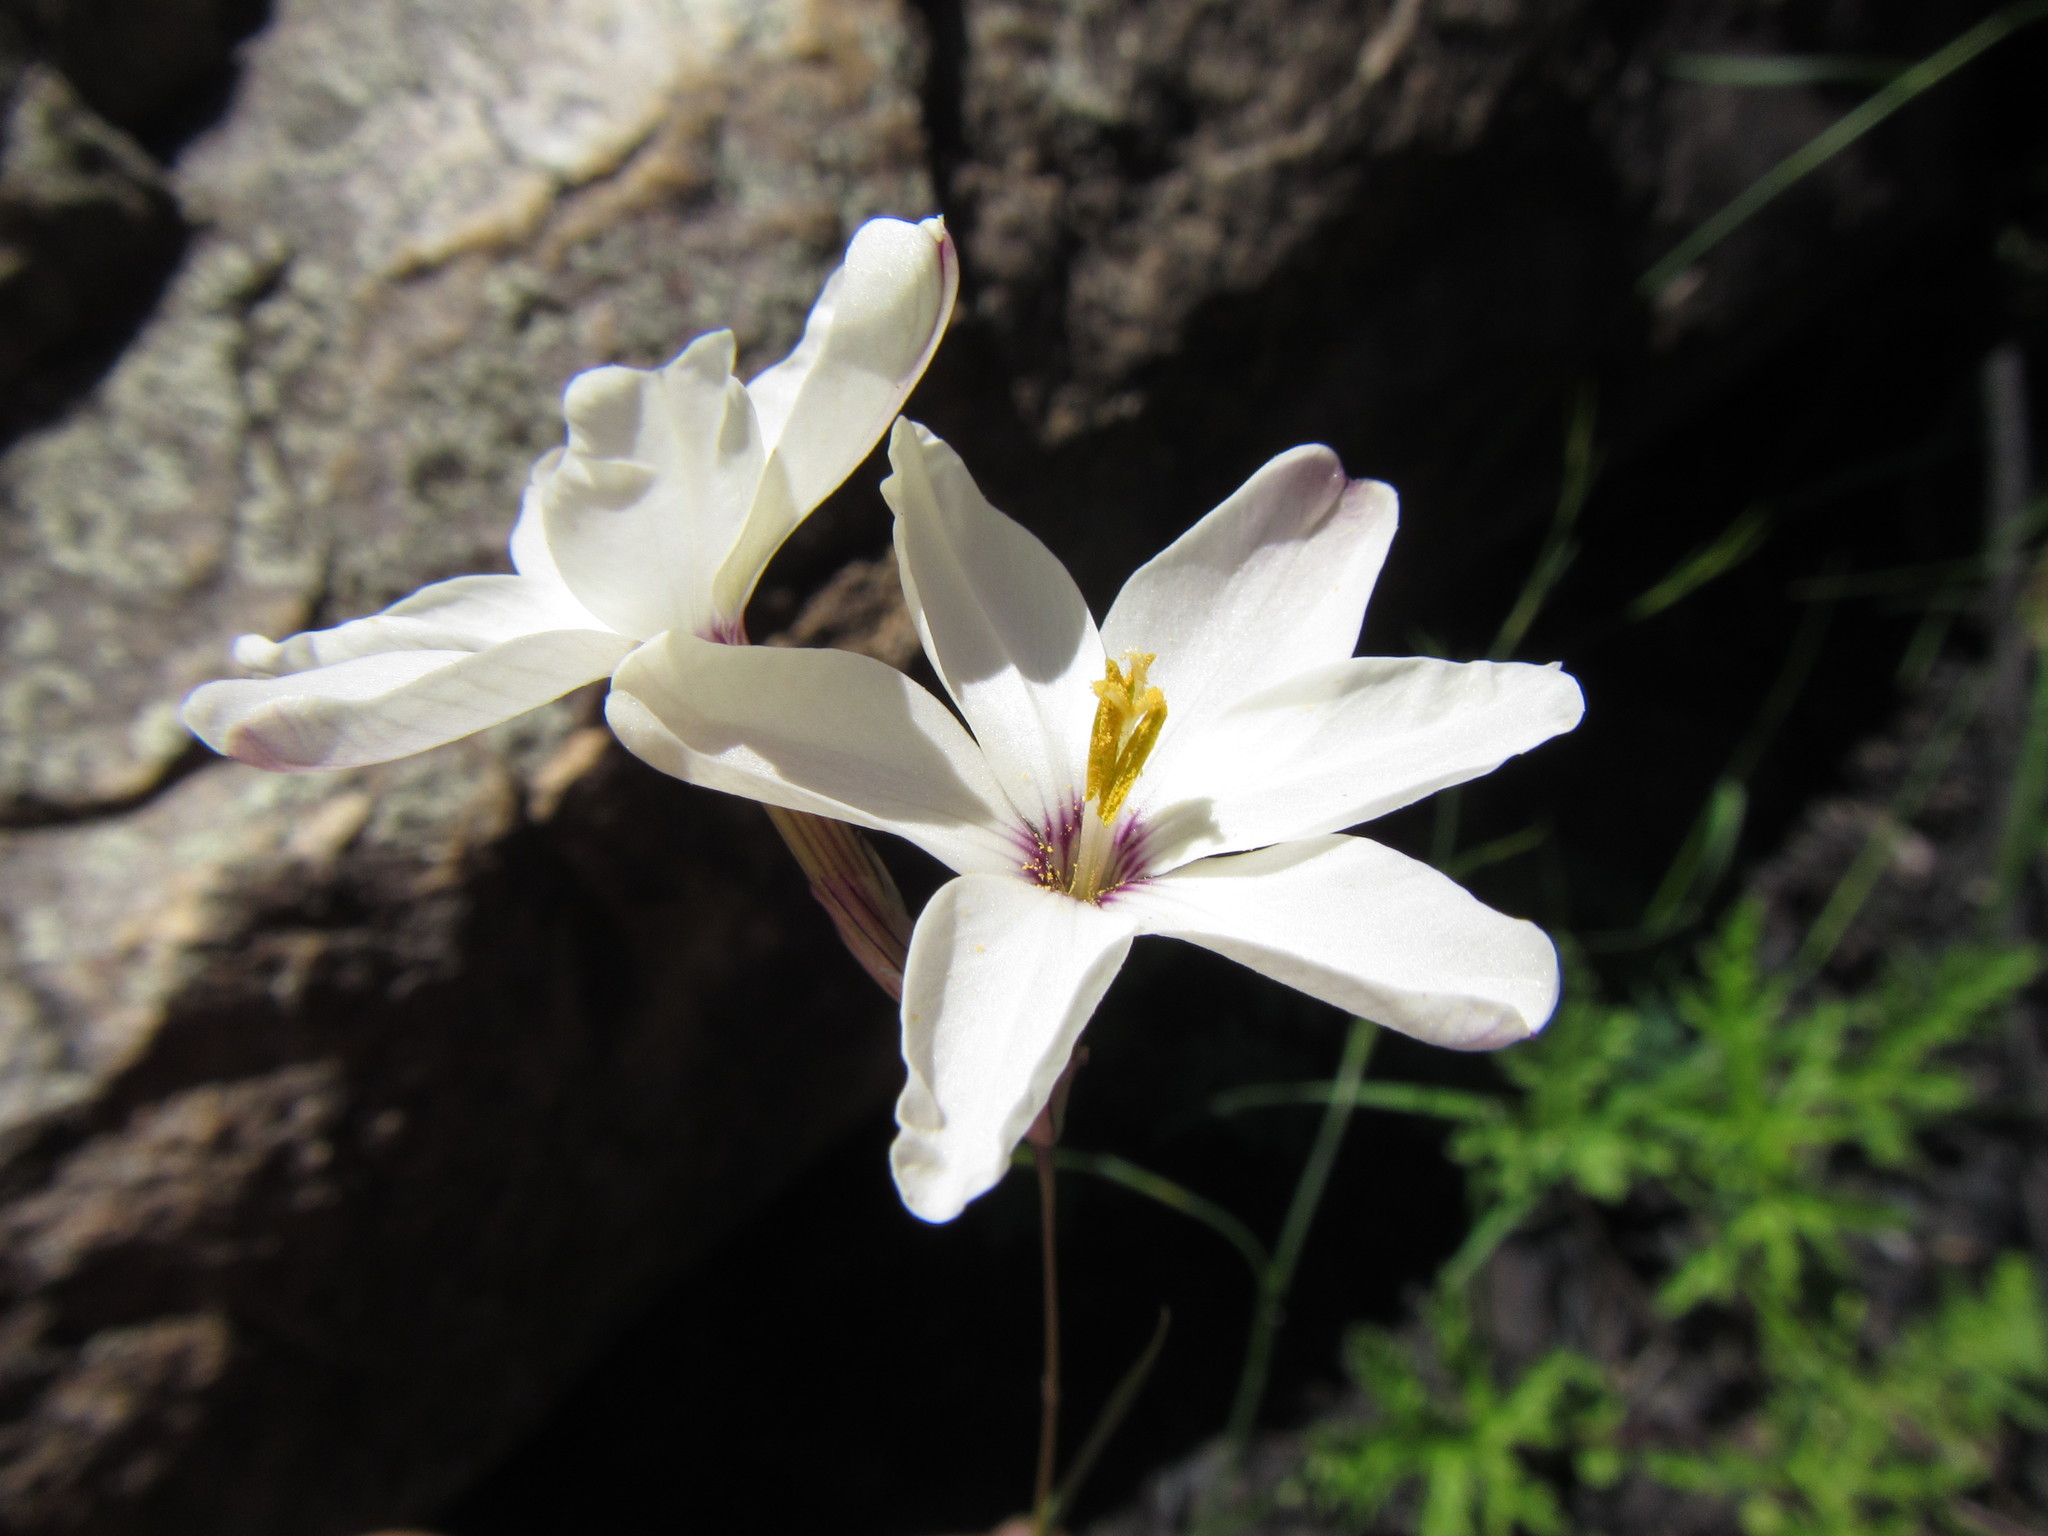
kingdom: Plantae
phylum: Tracheophyta
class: Liliopsida
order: Asparagales
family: Iridaceae
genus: Ixia
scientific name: Ixia stenophylla
